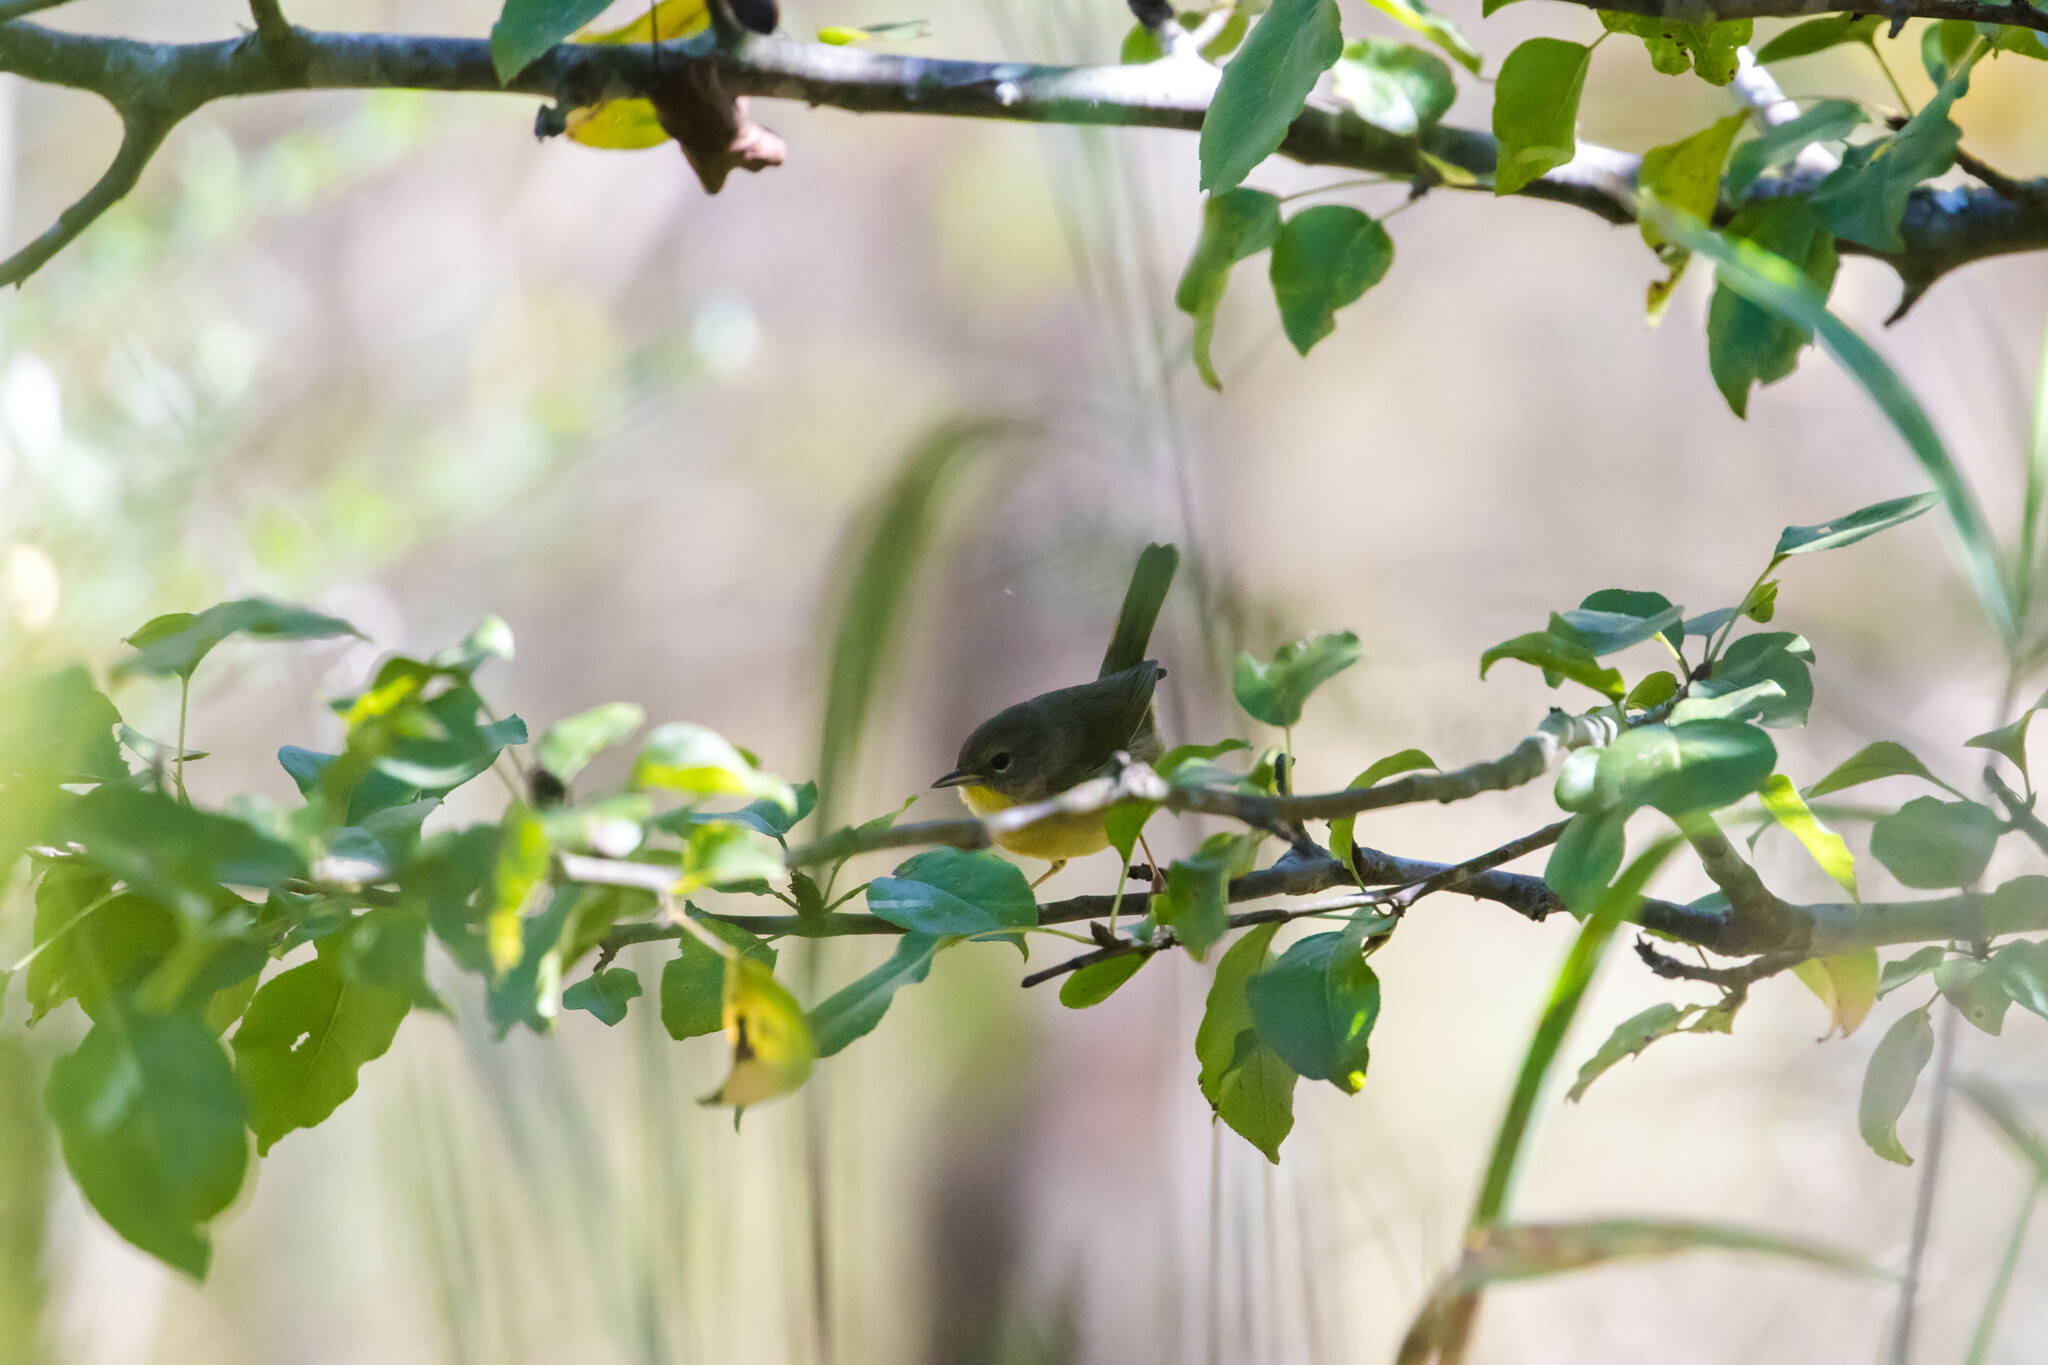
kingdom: Animalia
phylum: Chordata
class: Aves
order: Passeriformes
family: Parulidae
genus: Geothlypis
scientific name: Geothlypis trichas
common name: Common yellowthroat
